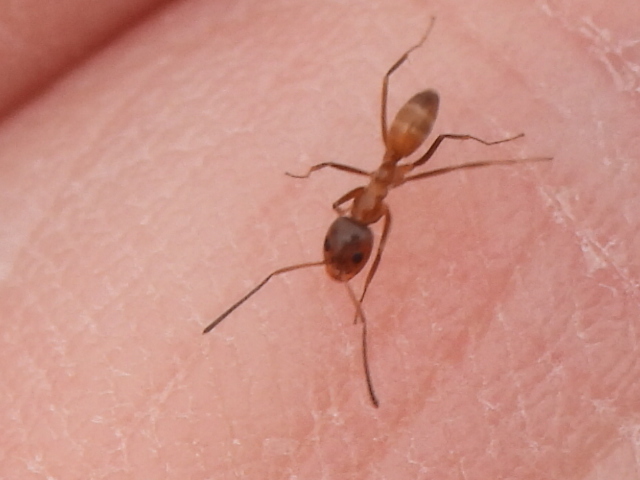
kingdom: Animalia
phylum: Arthropoda
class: Insecta
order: Hymenoptera
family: Formicidae
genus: Dorymyrmex
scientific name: Dorymyrmex flavus
